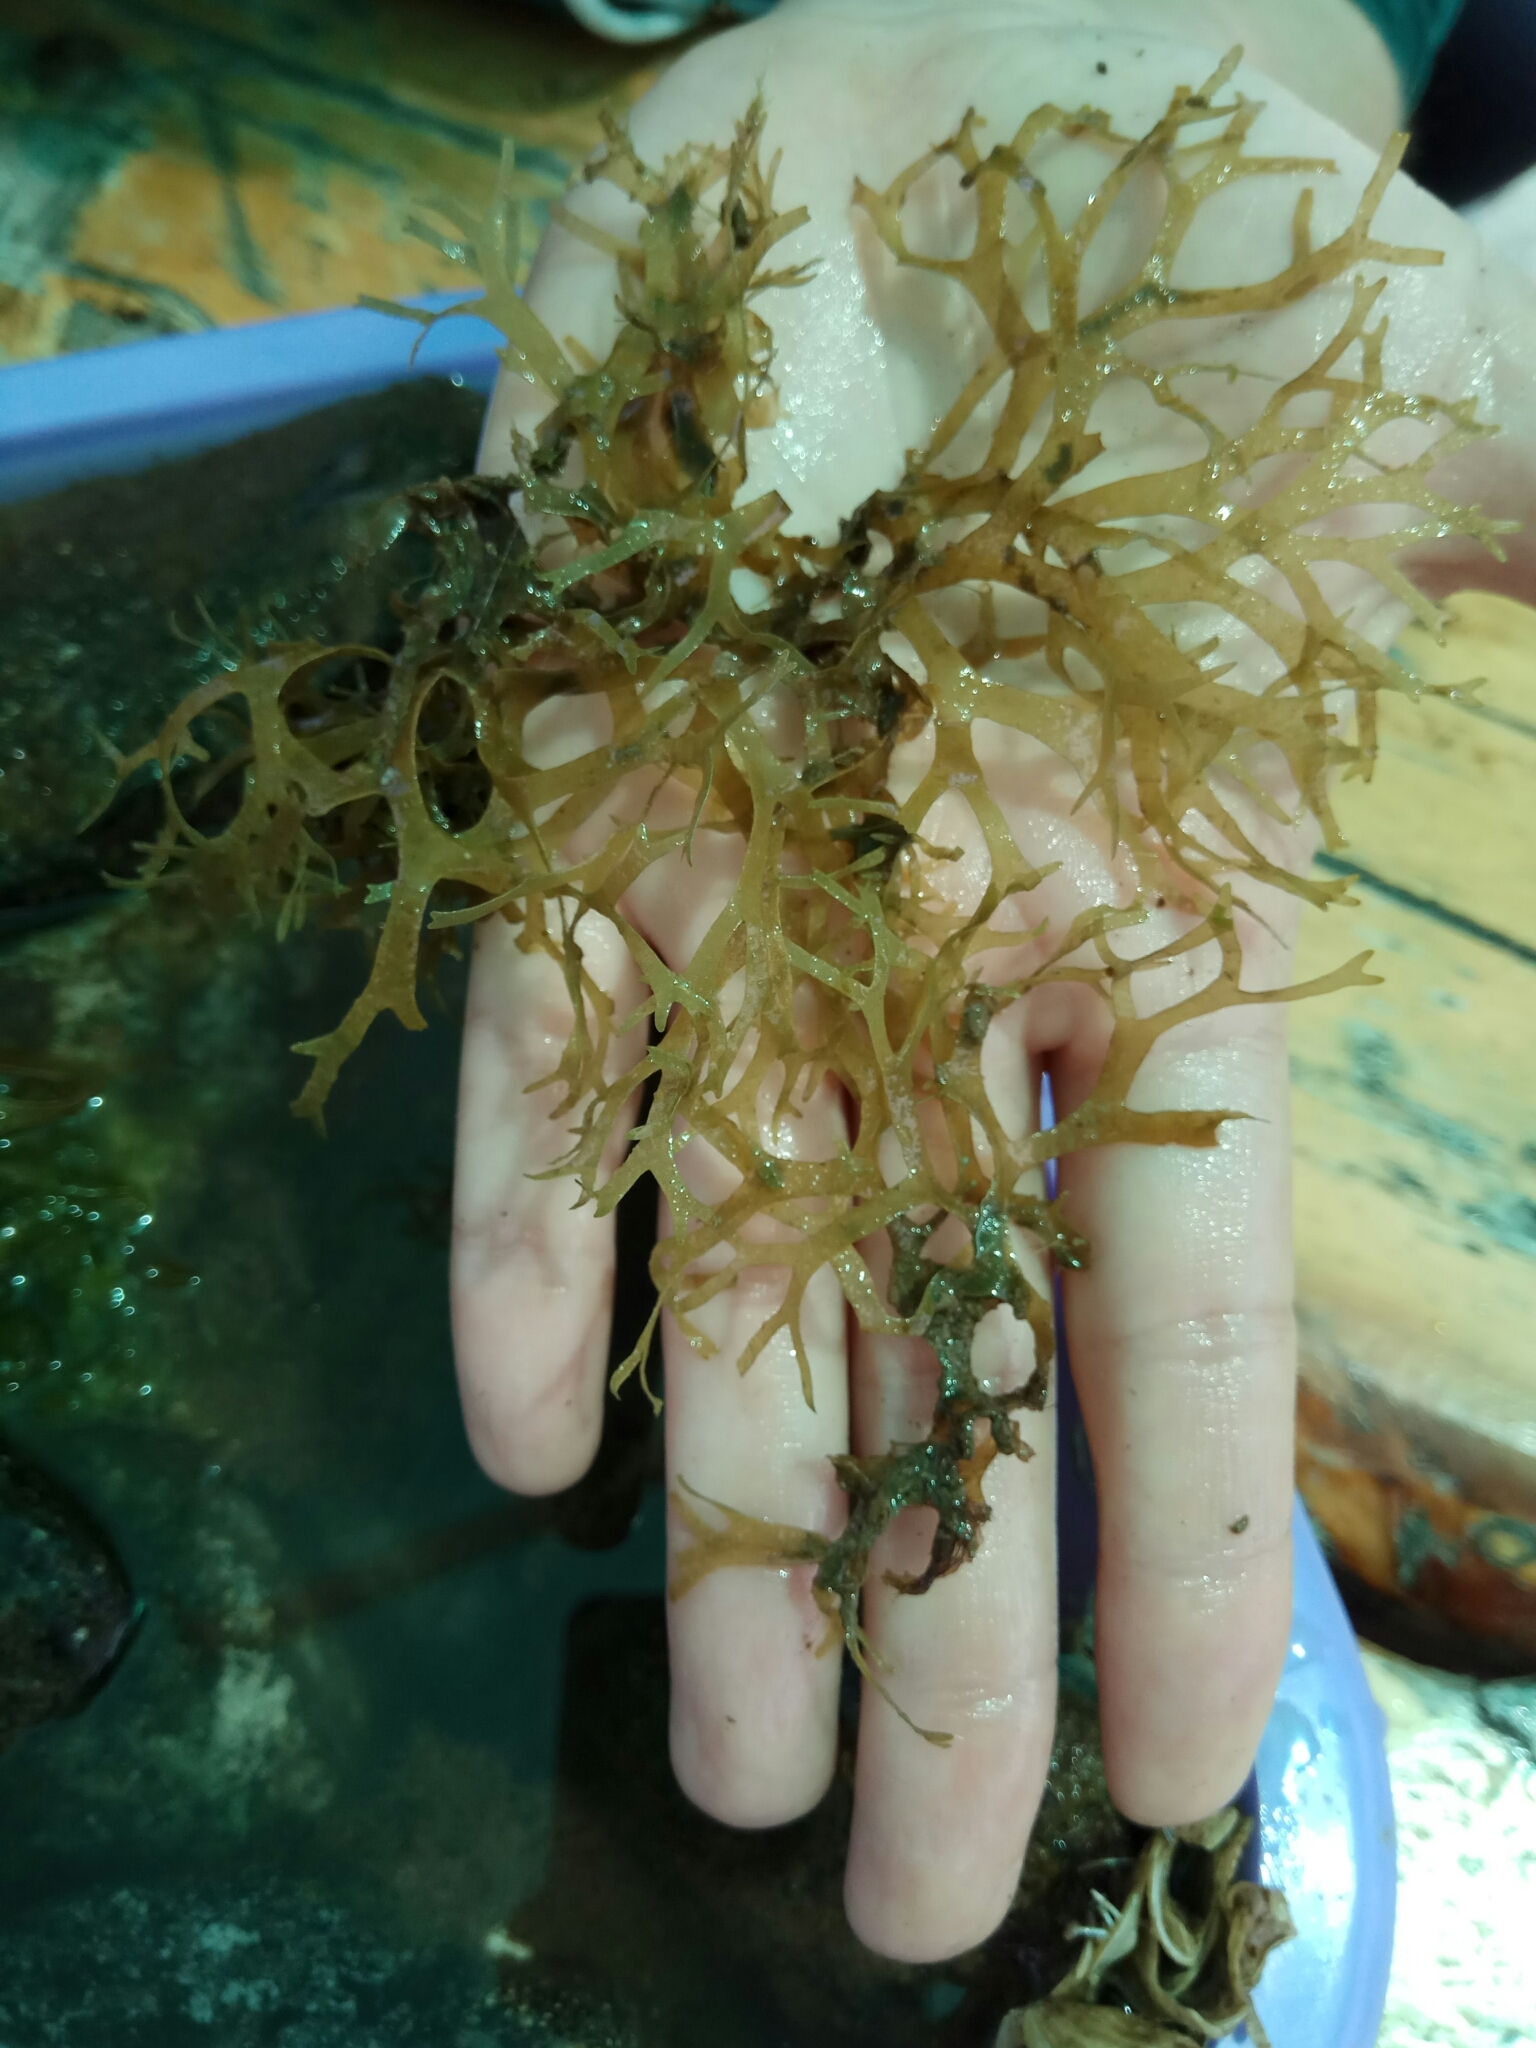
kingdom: Chromista
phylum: Ochrophyta
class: Phaeophyceae
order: Dictyotales
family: Dictyotaceae
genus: Dictyota
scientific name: Dictyota dichotoma
